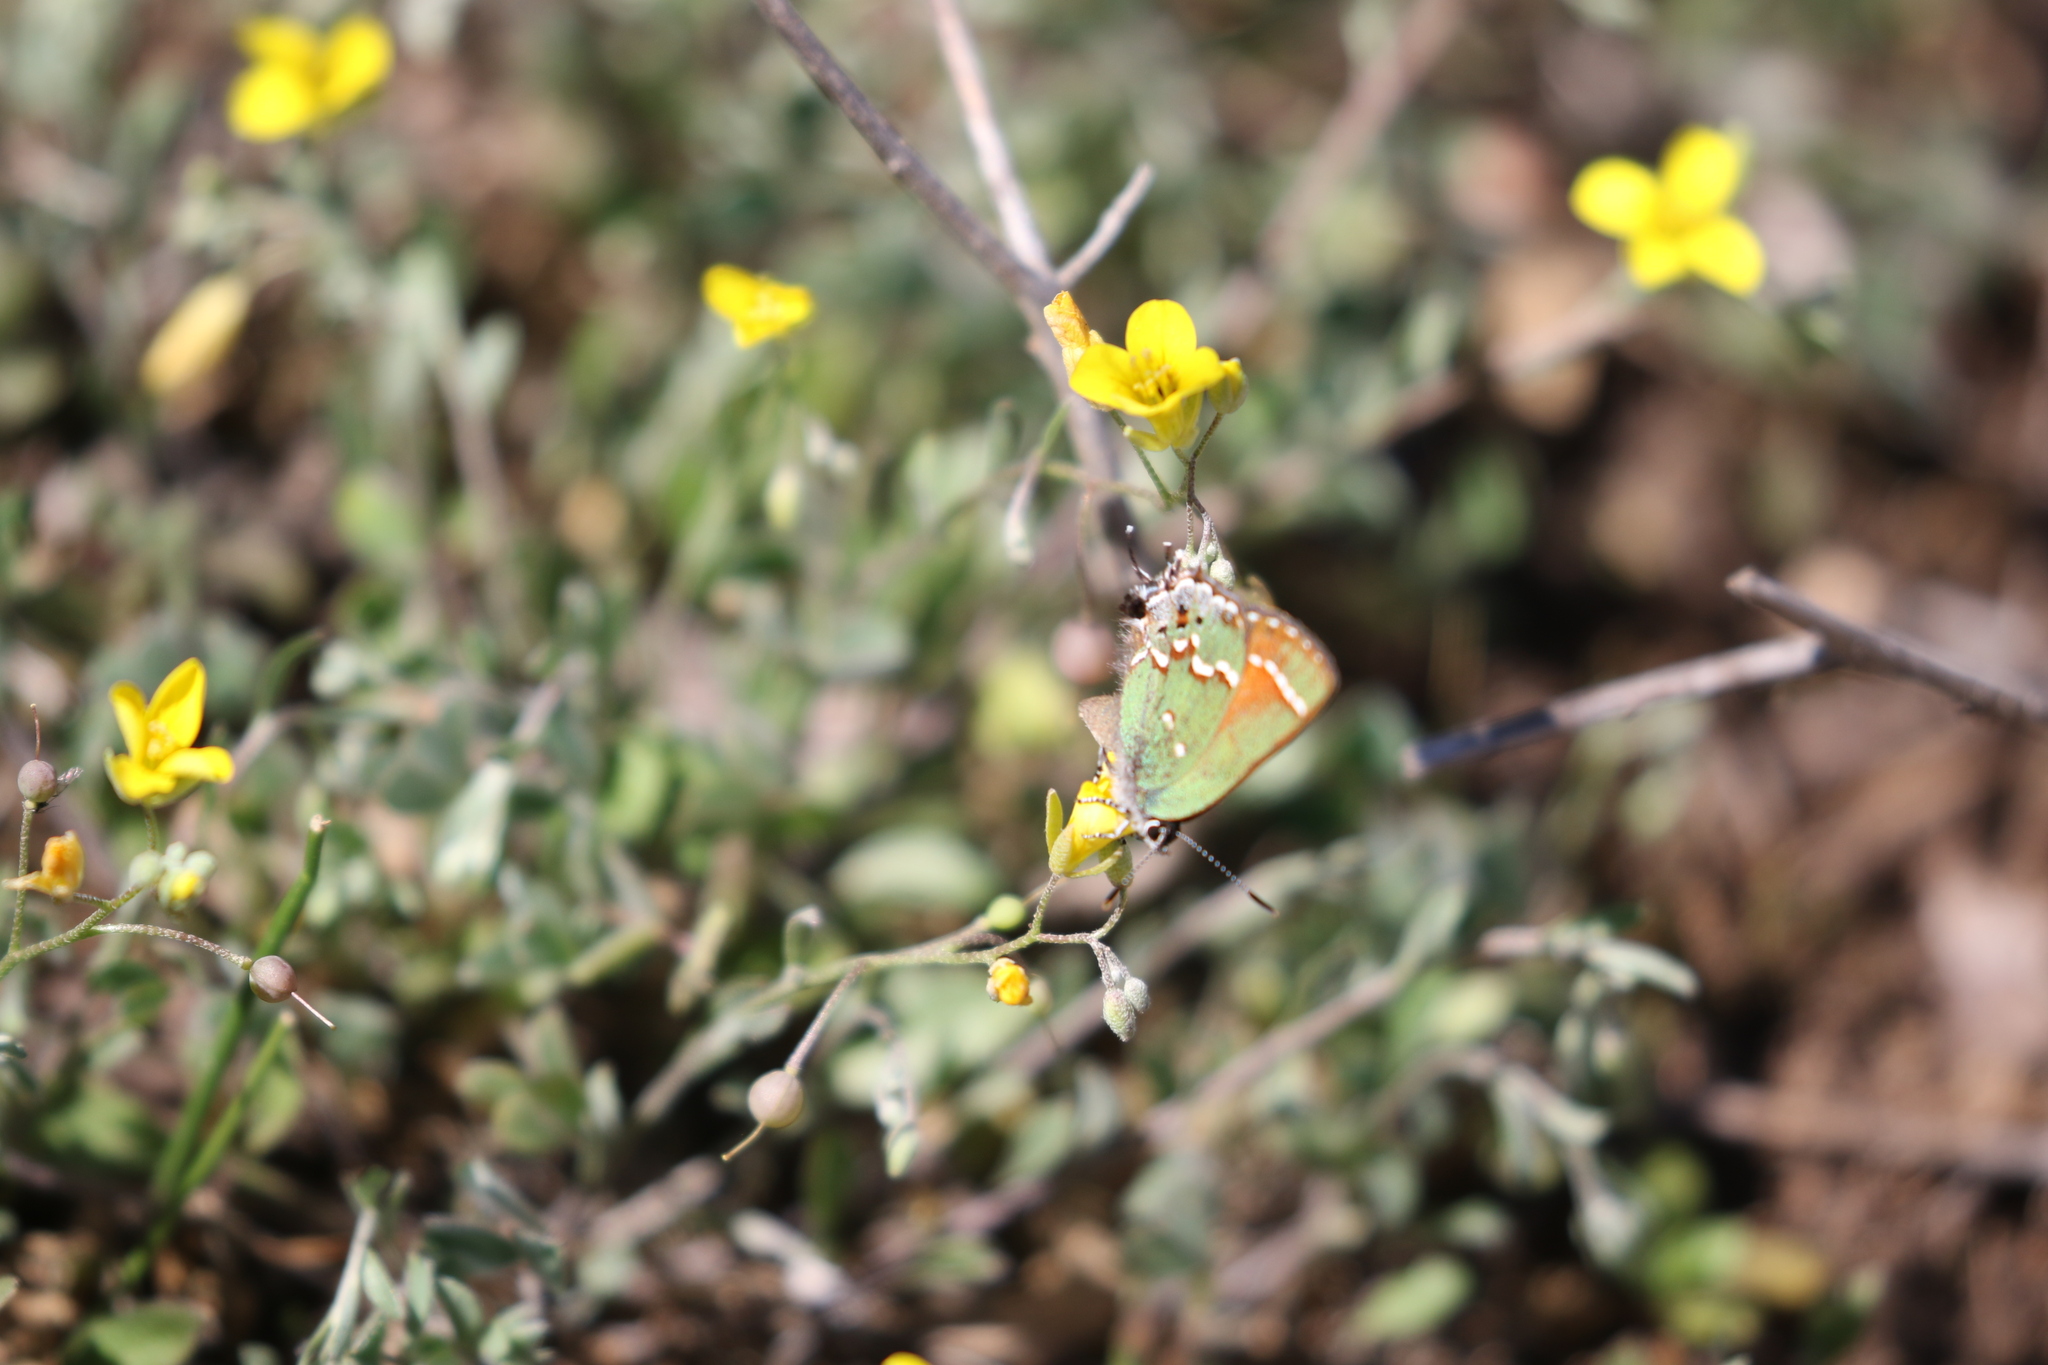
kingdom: Animalia
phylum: Arthropoda
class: Insecta
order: Lepidoptera
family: Lycaenidae
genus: Mitoura
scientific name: Mitoura gryneus
